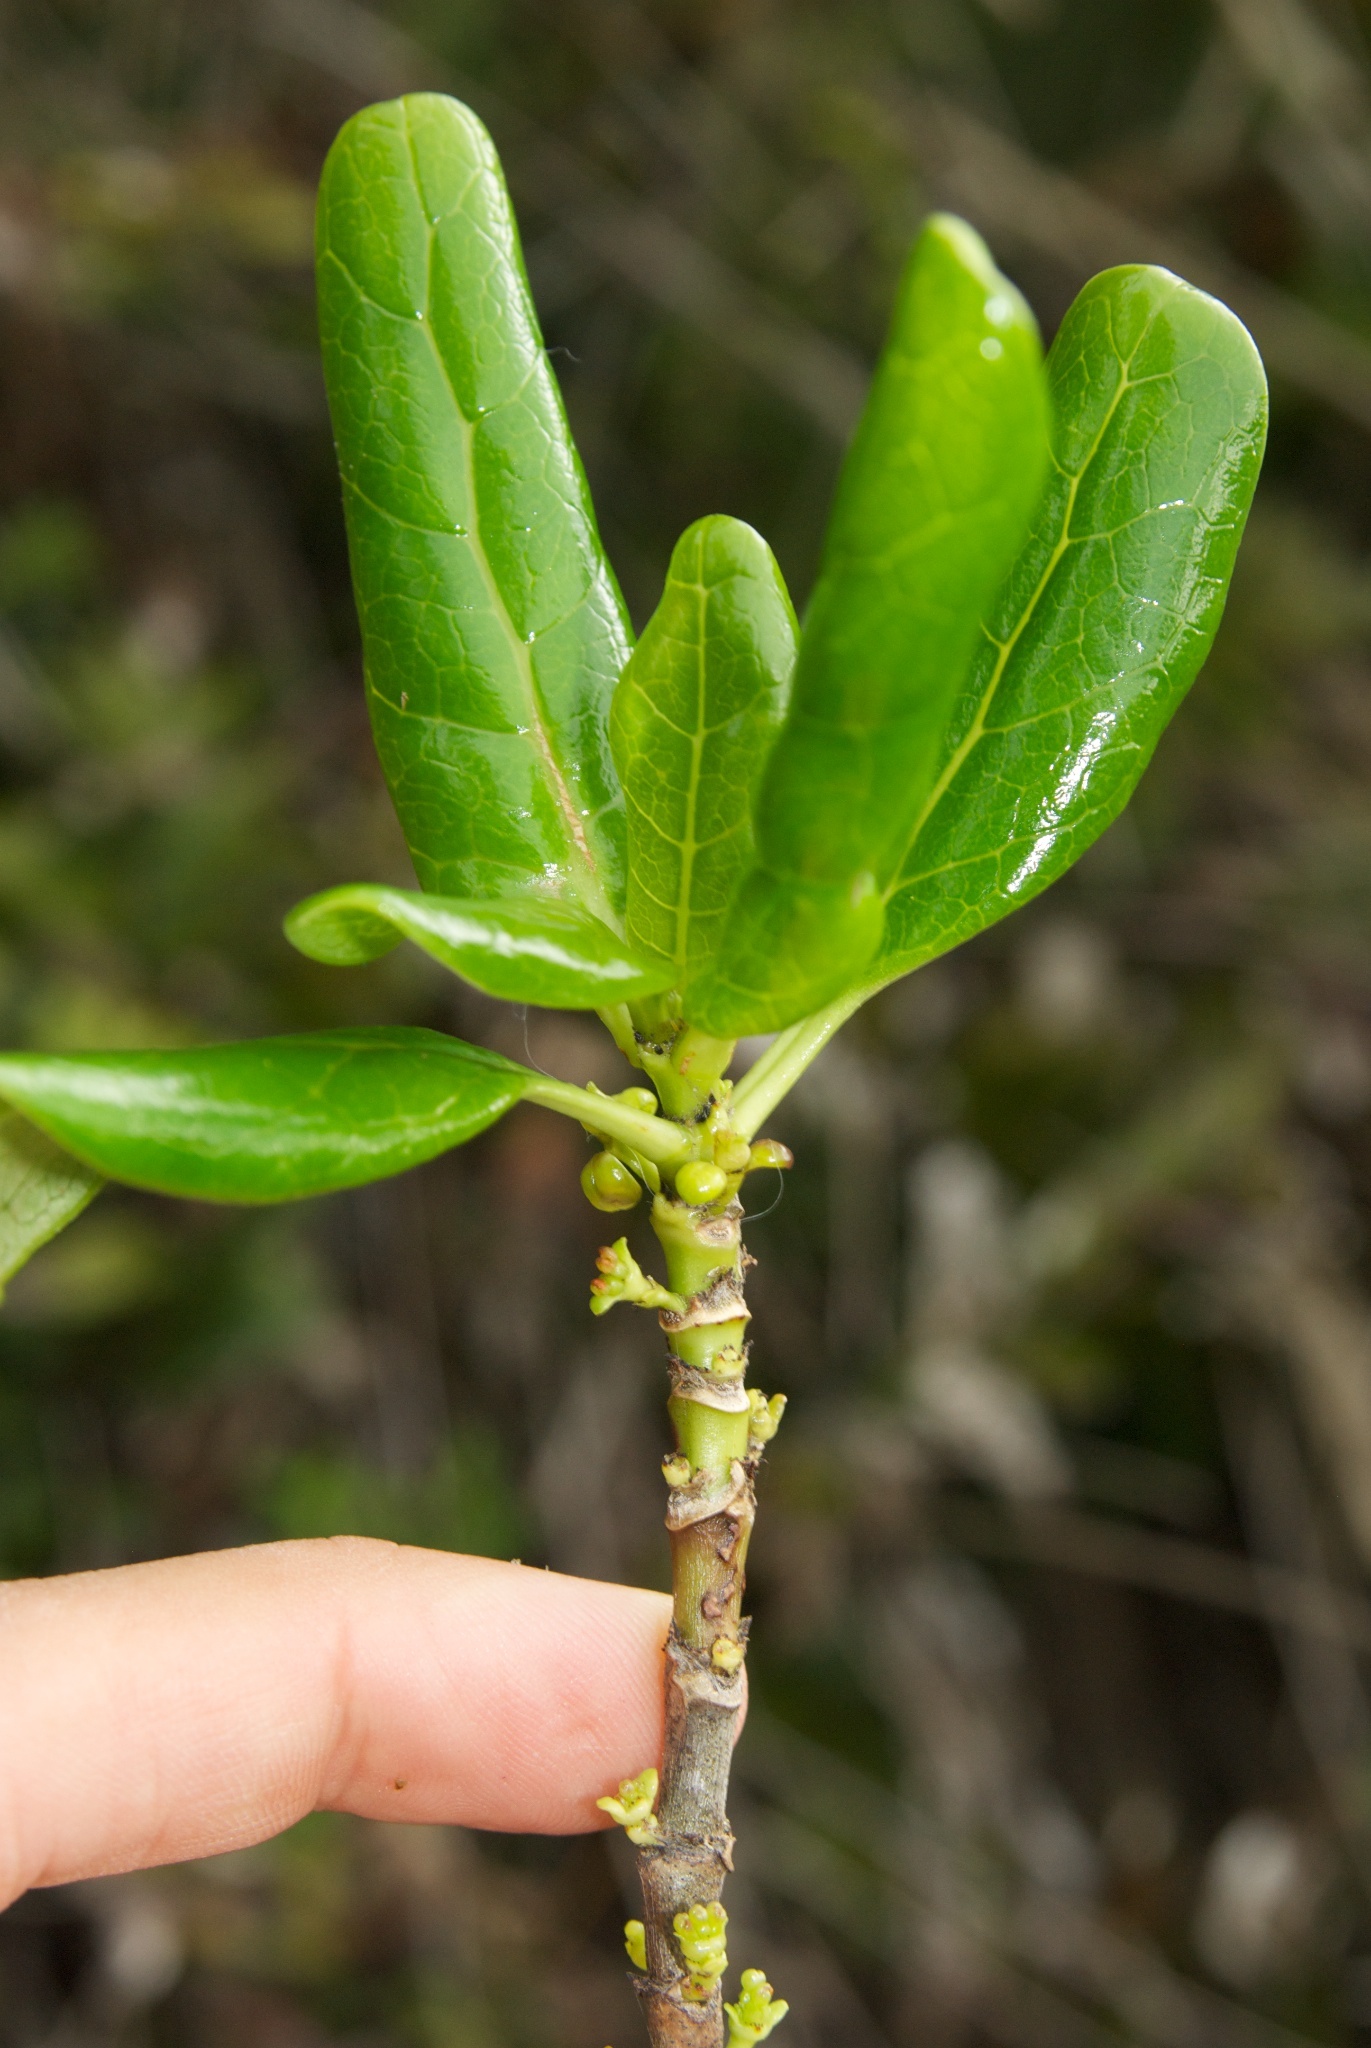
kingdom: Plantae
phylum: Tracheophyta
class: Magnoliopsida
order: Gentianales
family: Rubiaceae
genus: Coprosma
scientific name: Coprosma repens
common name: Tree bedstraw
